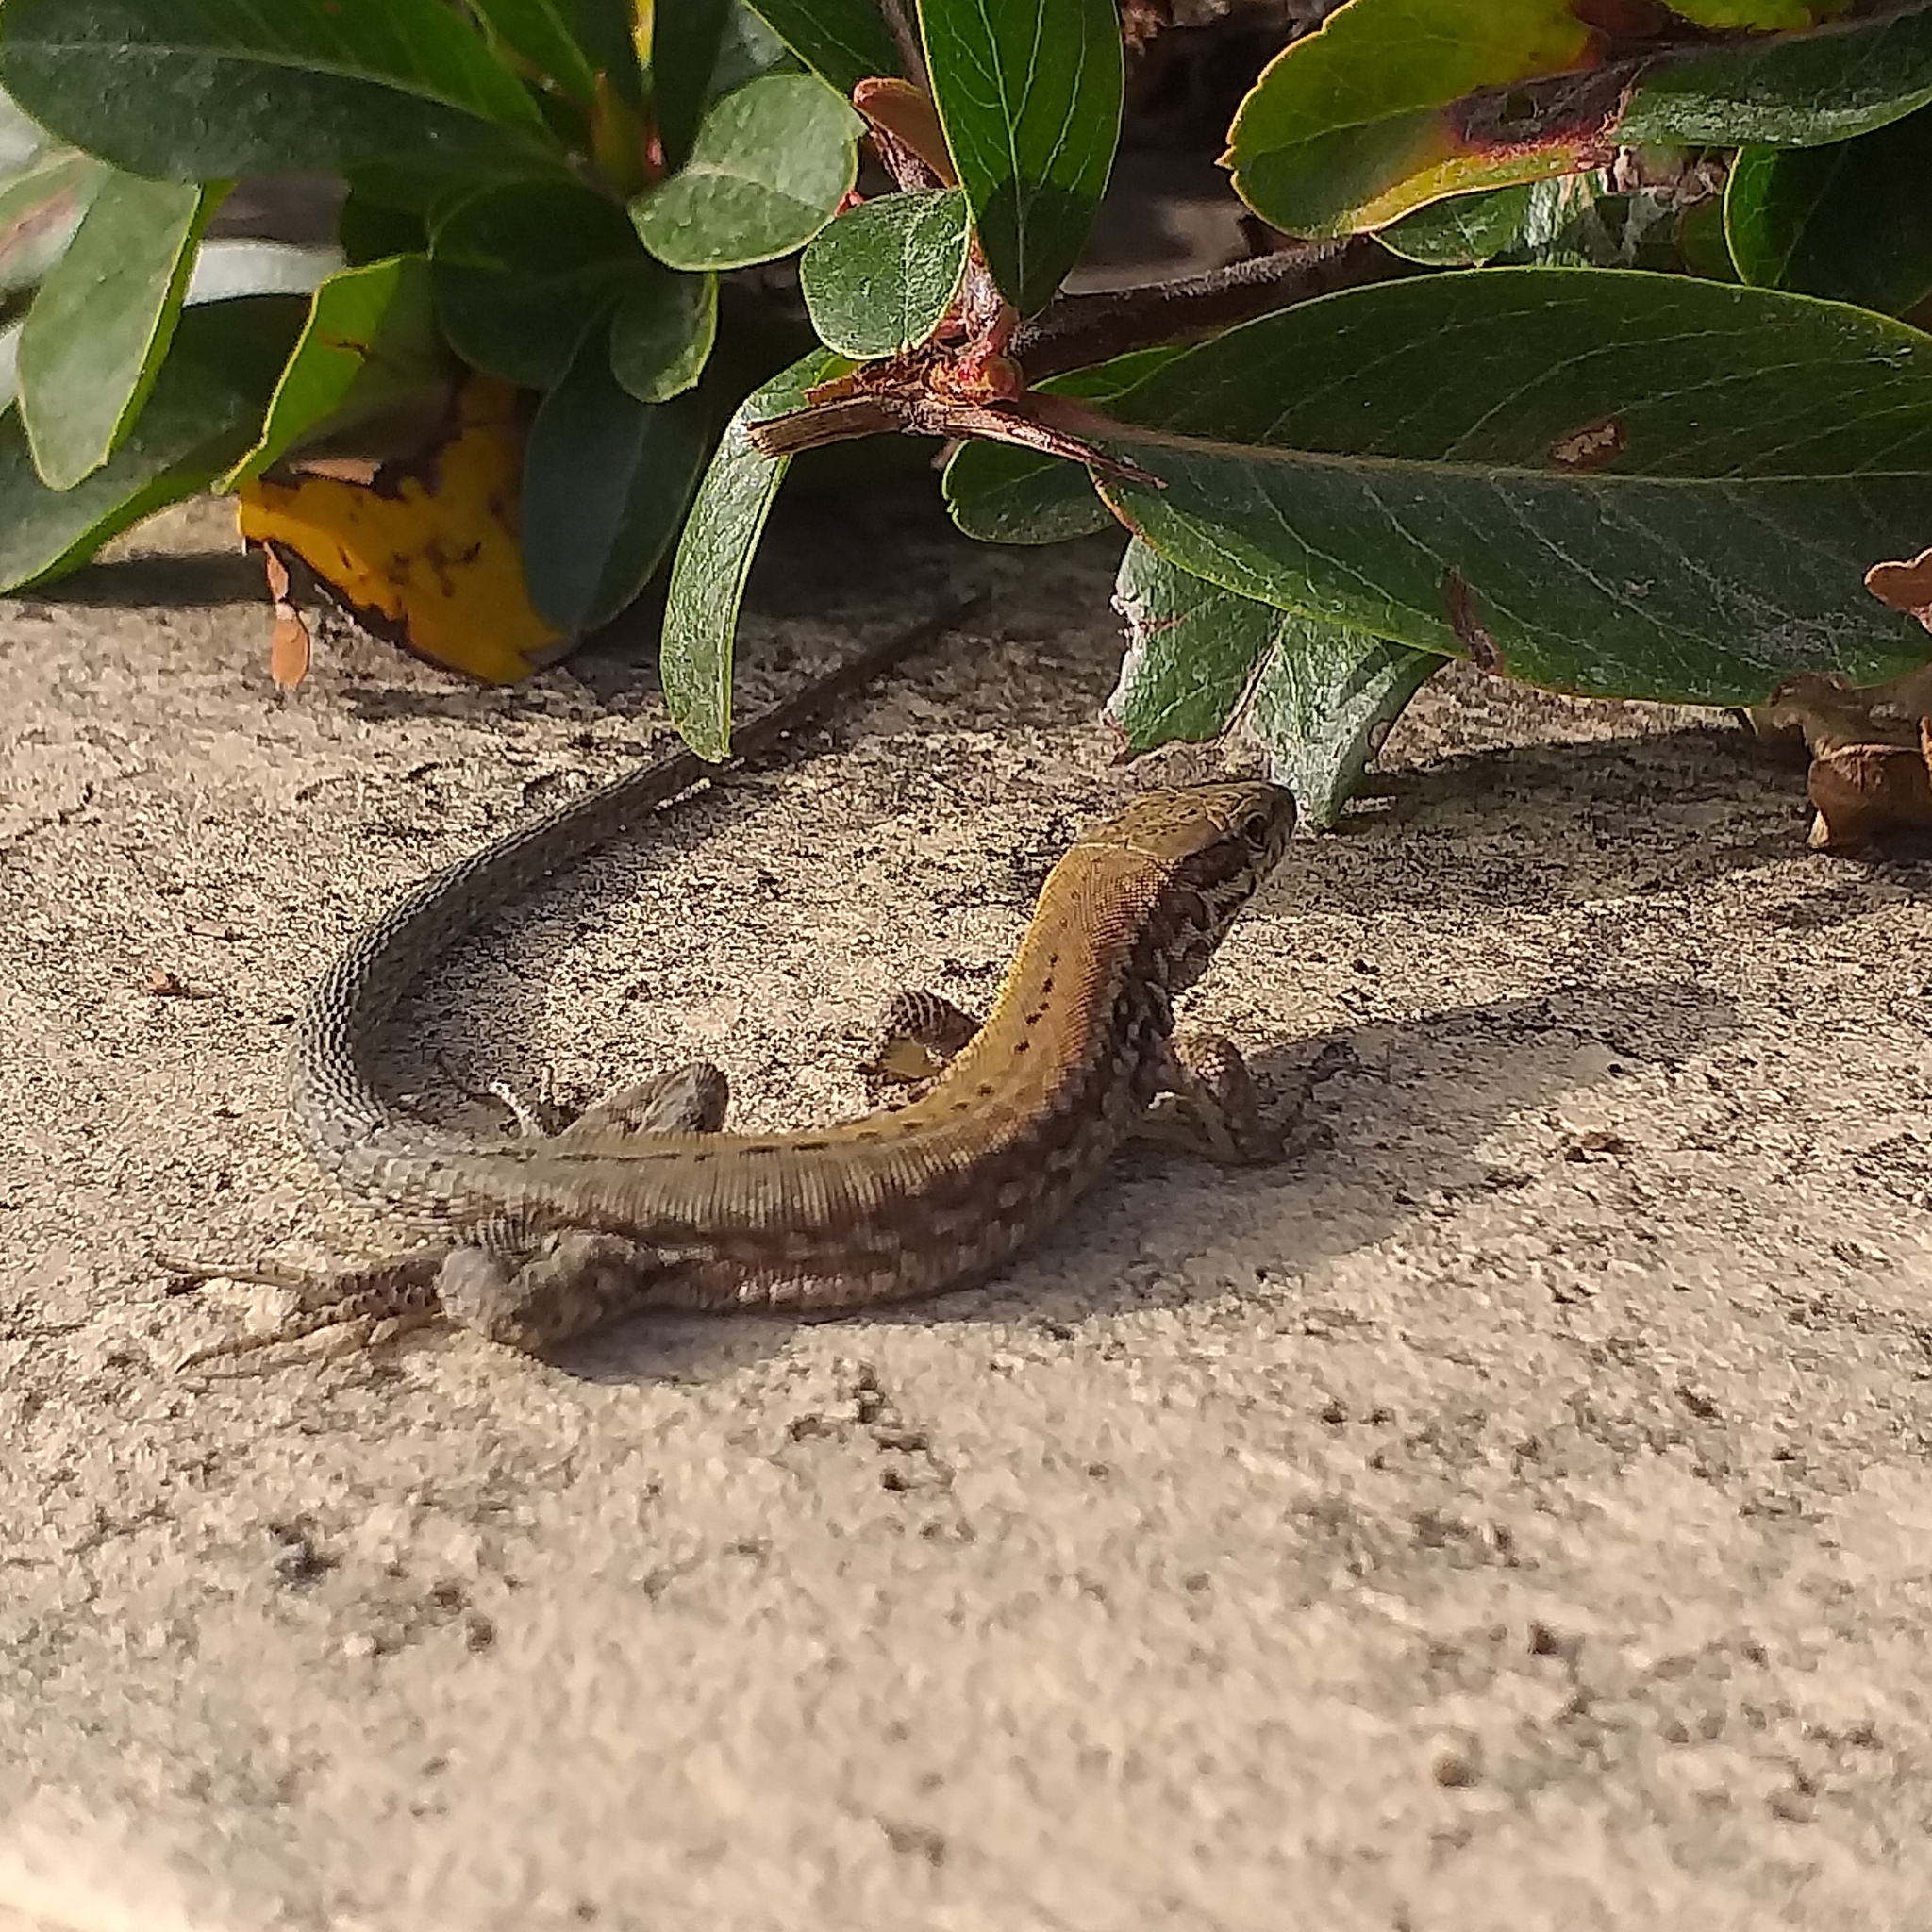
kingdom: Animalia
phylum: Chordata
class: Squamata
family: Lacertidae
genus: Podarcis
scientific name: Podarcis muralis
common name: Common wall lizard
